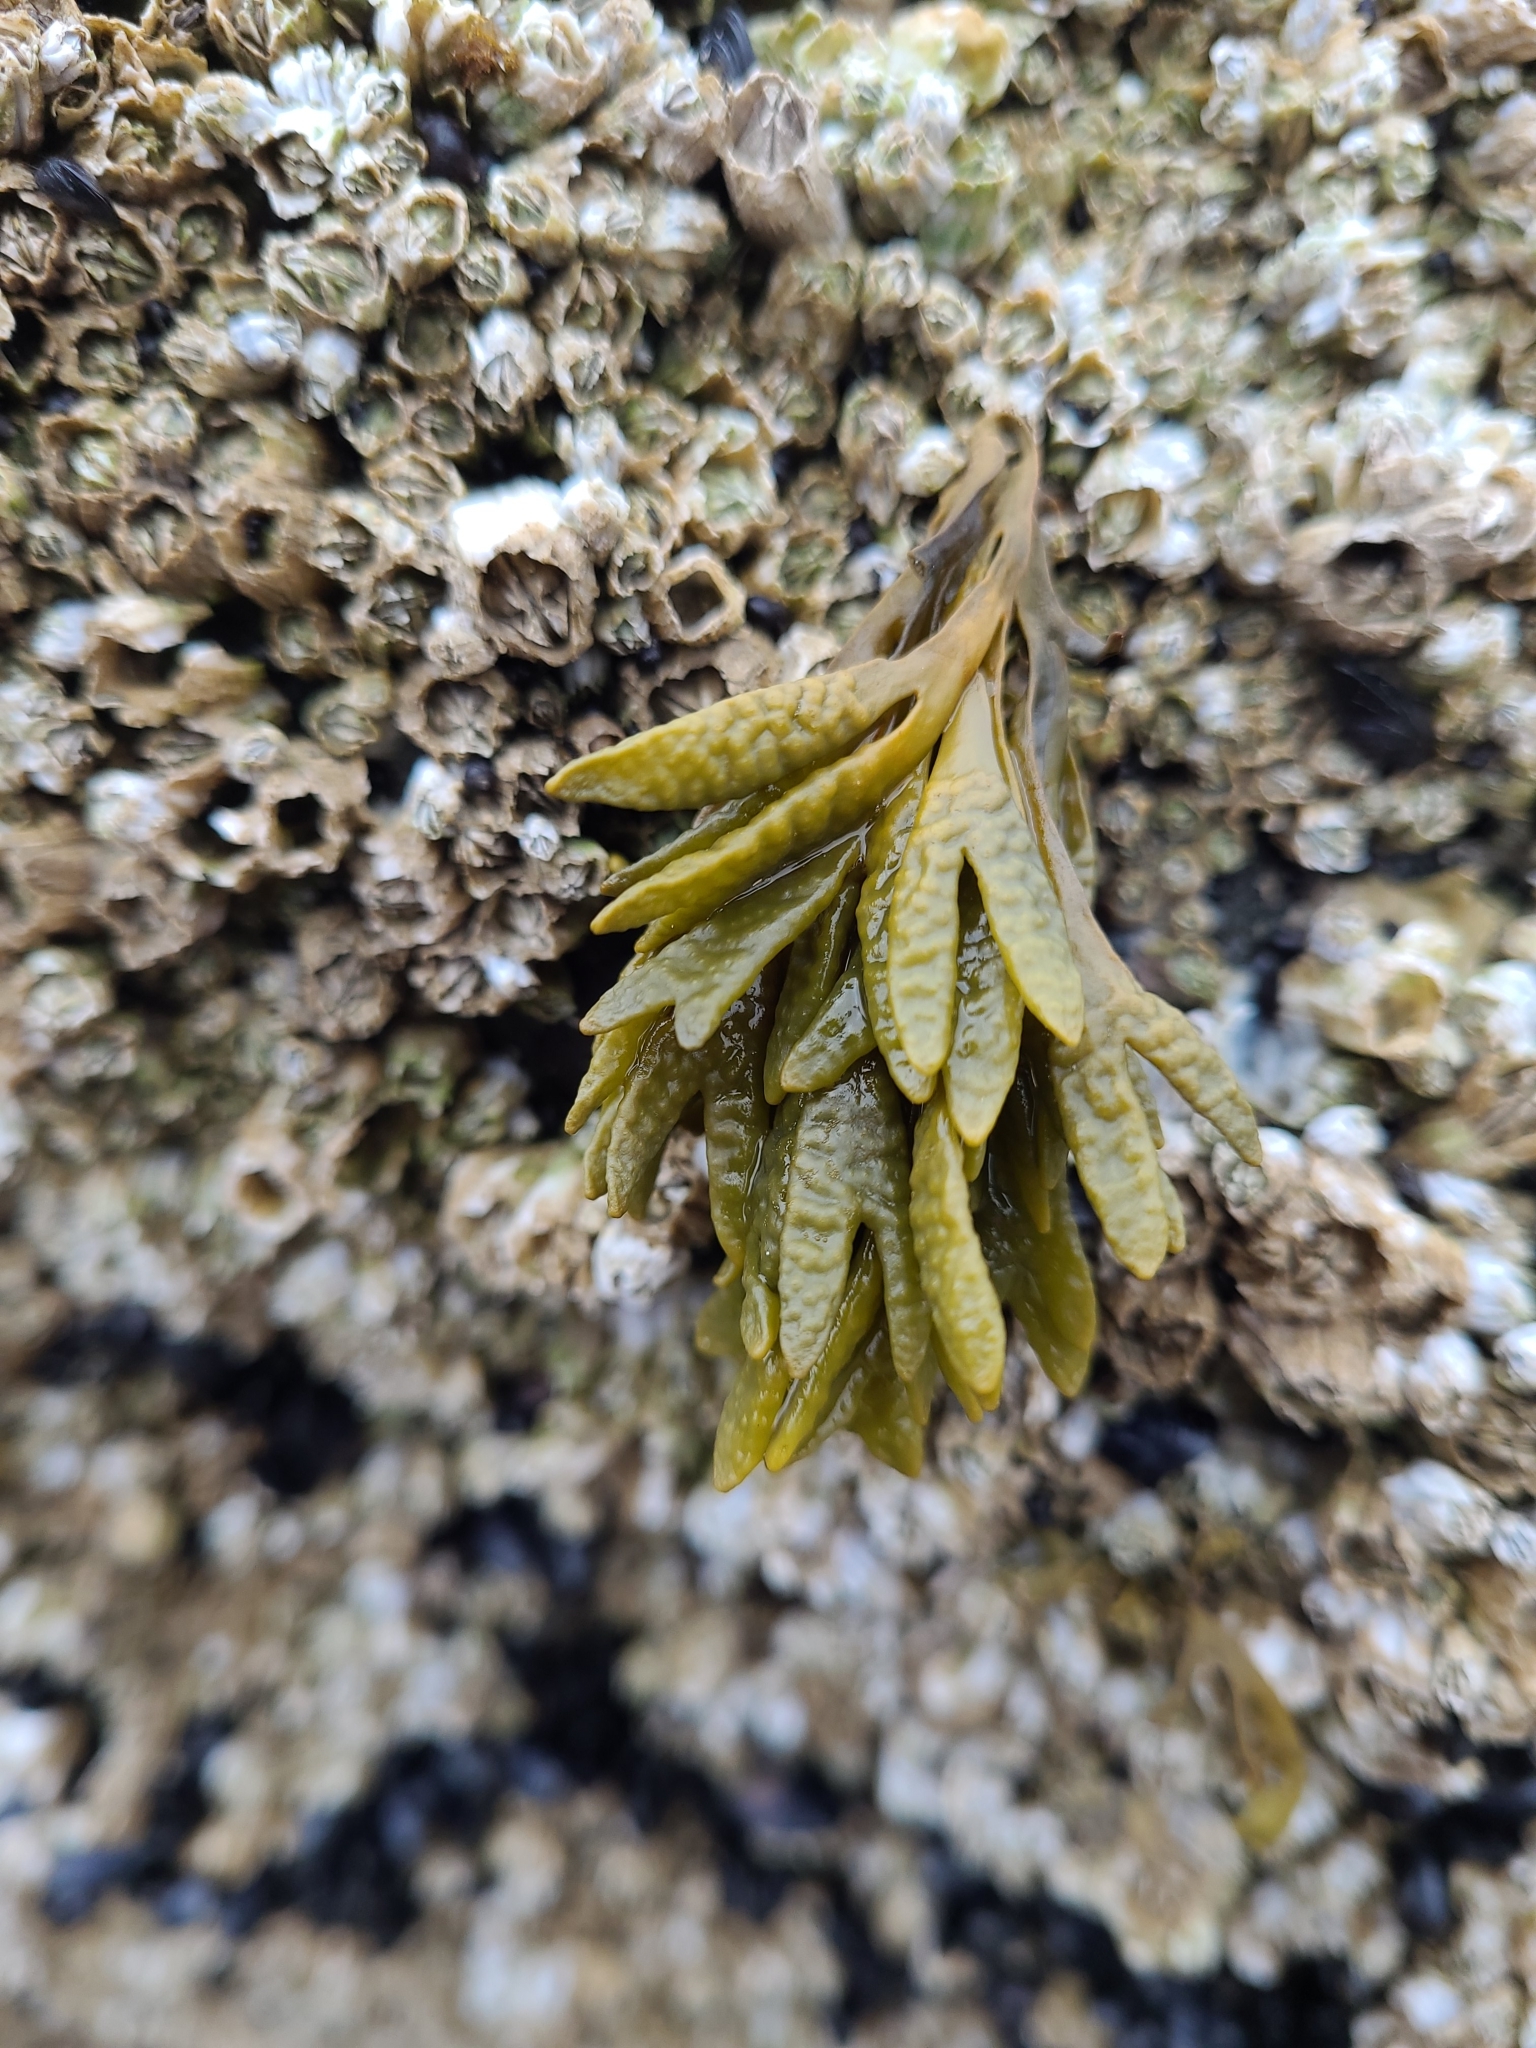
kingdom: Chromista
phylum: Ochrophyta
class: Phaeophyceae
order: Fucales
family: Fucaceae
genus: Pelvetiopsis
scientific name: Pelvetiopsis limitata
